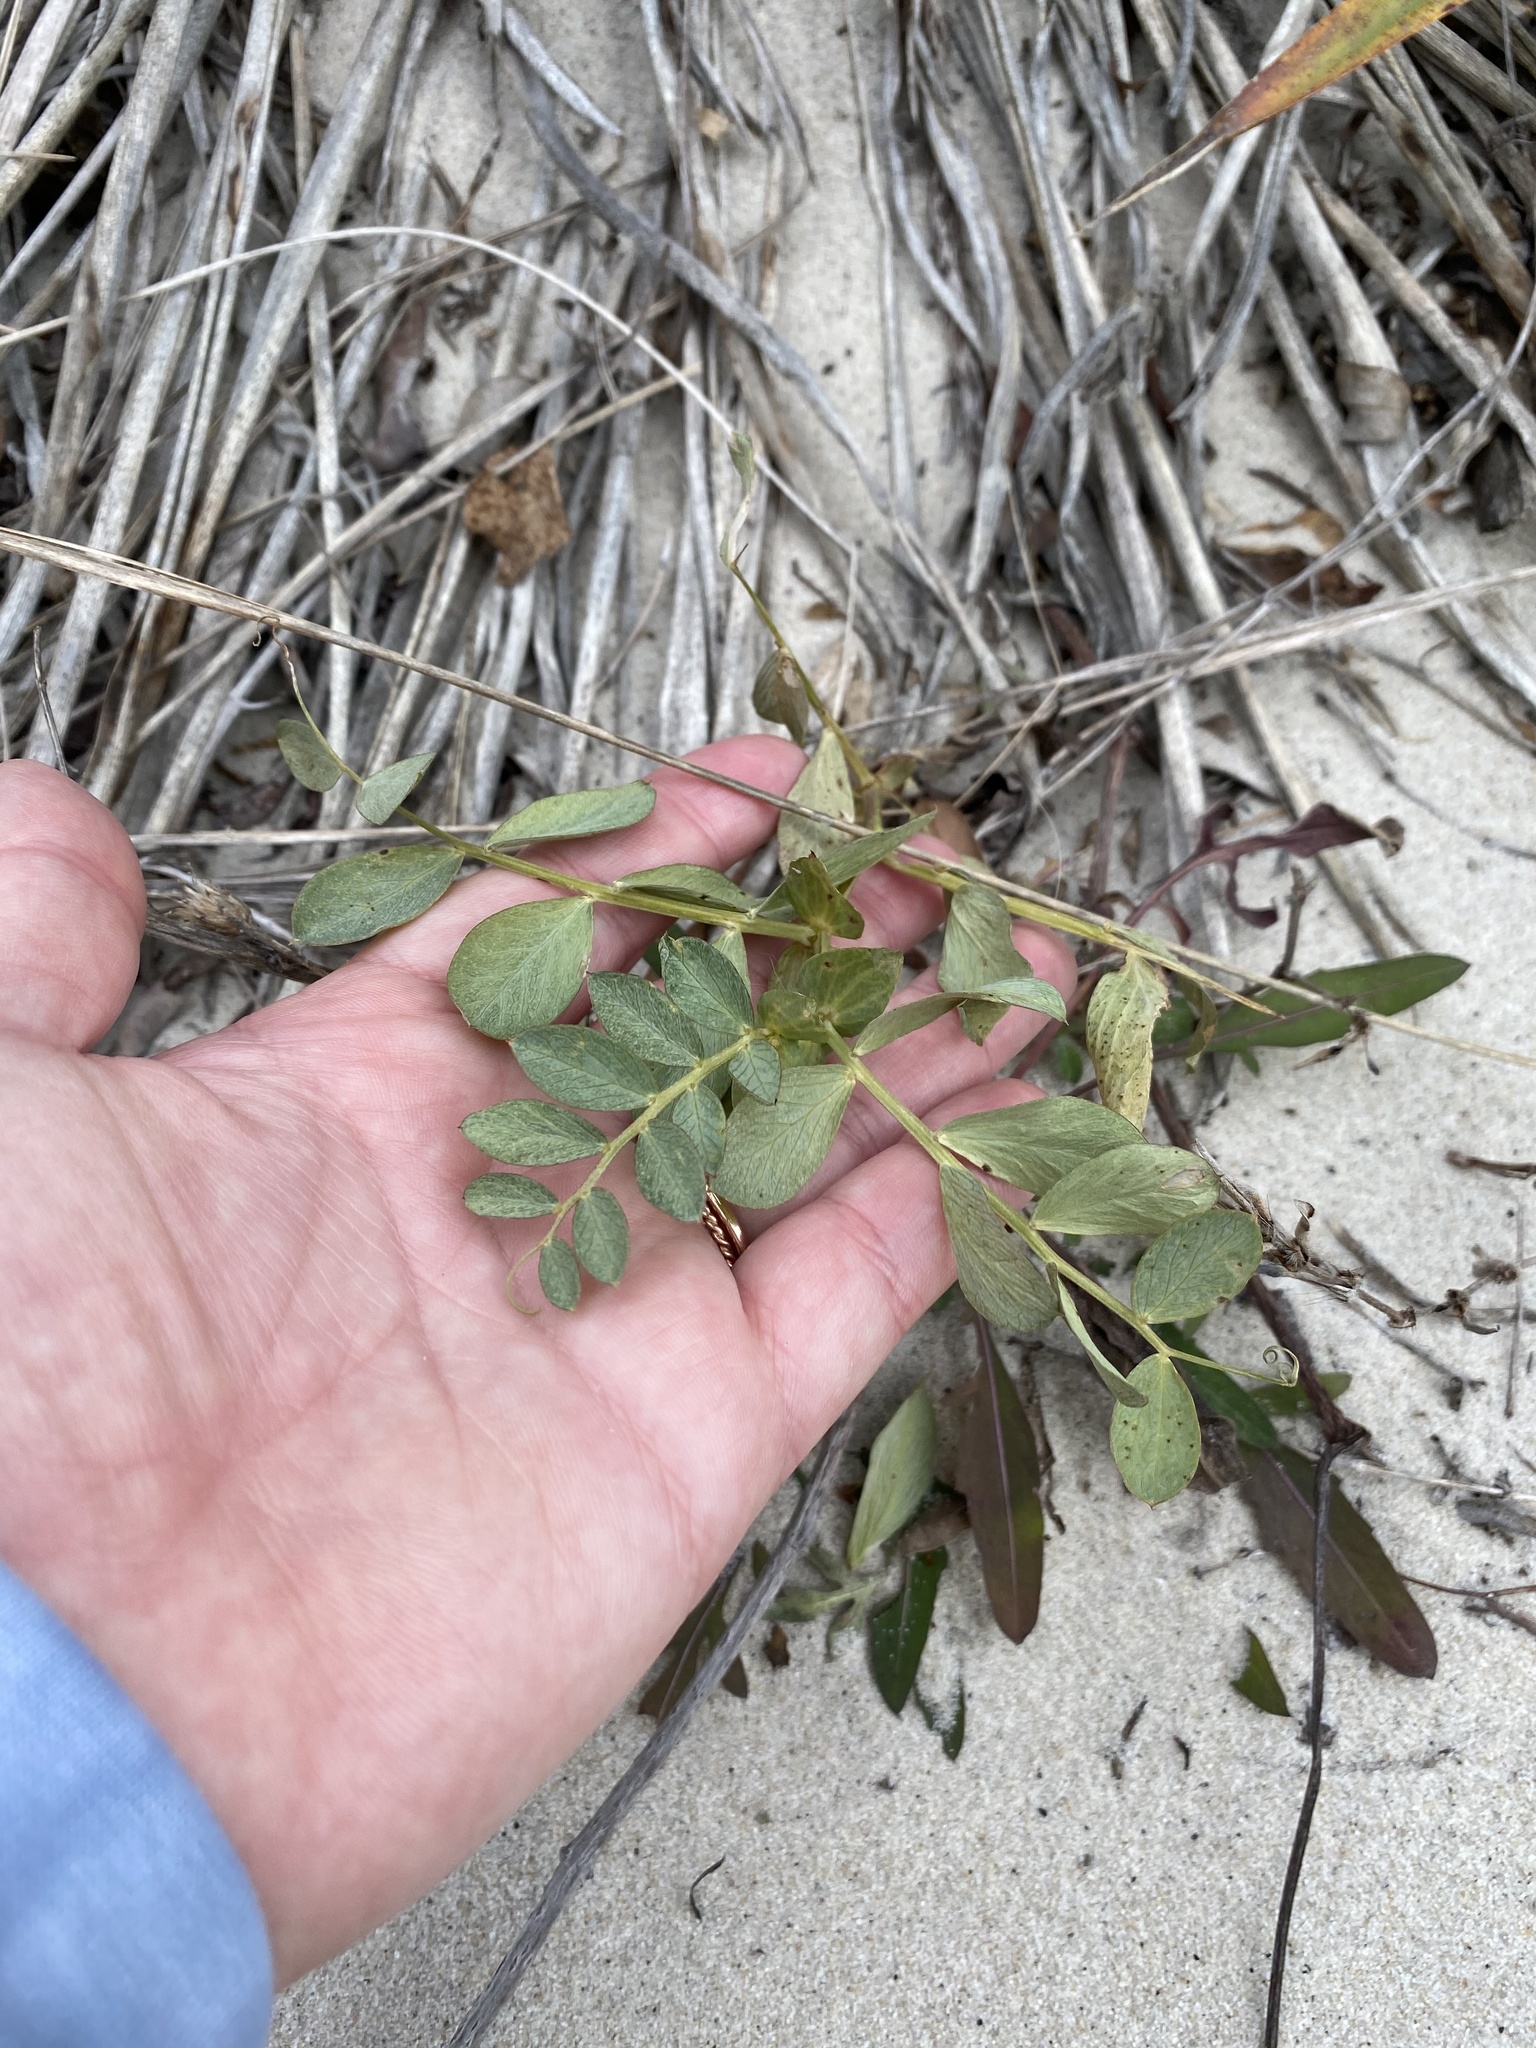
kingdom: Plantae
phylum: Tracheophyta
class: Magnoliopsida
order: Fabales
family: Fabaceae
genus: Lathyrus
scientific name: Lathyrus japonicus
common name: Sea pea
